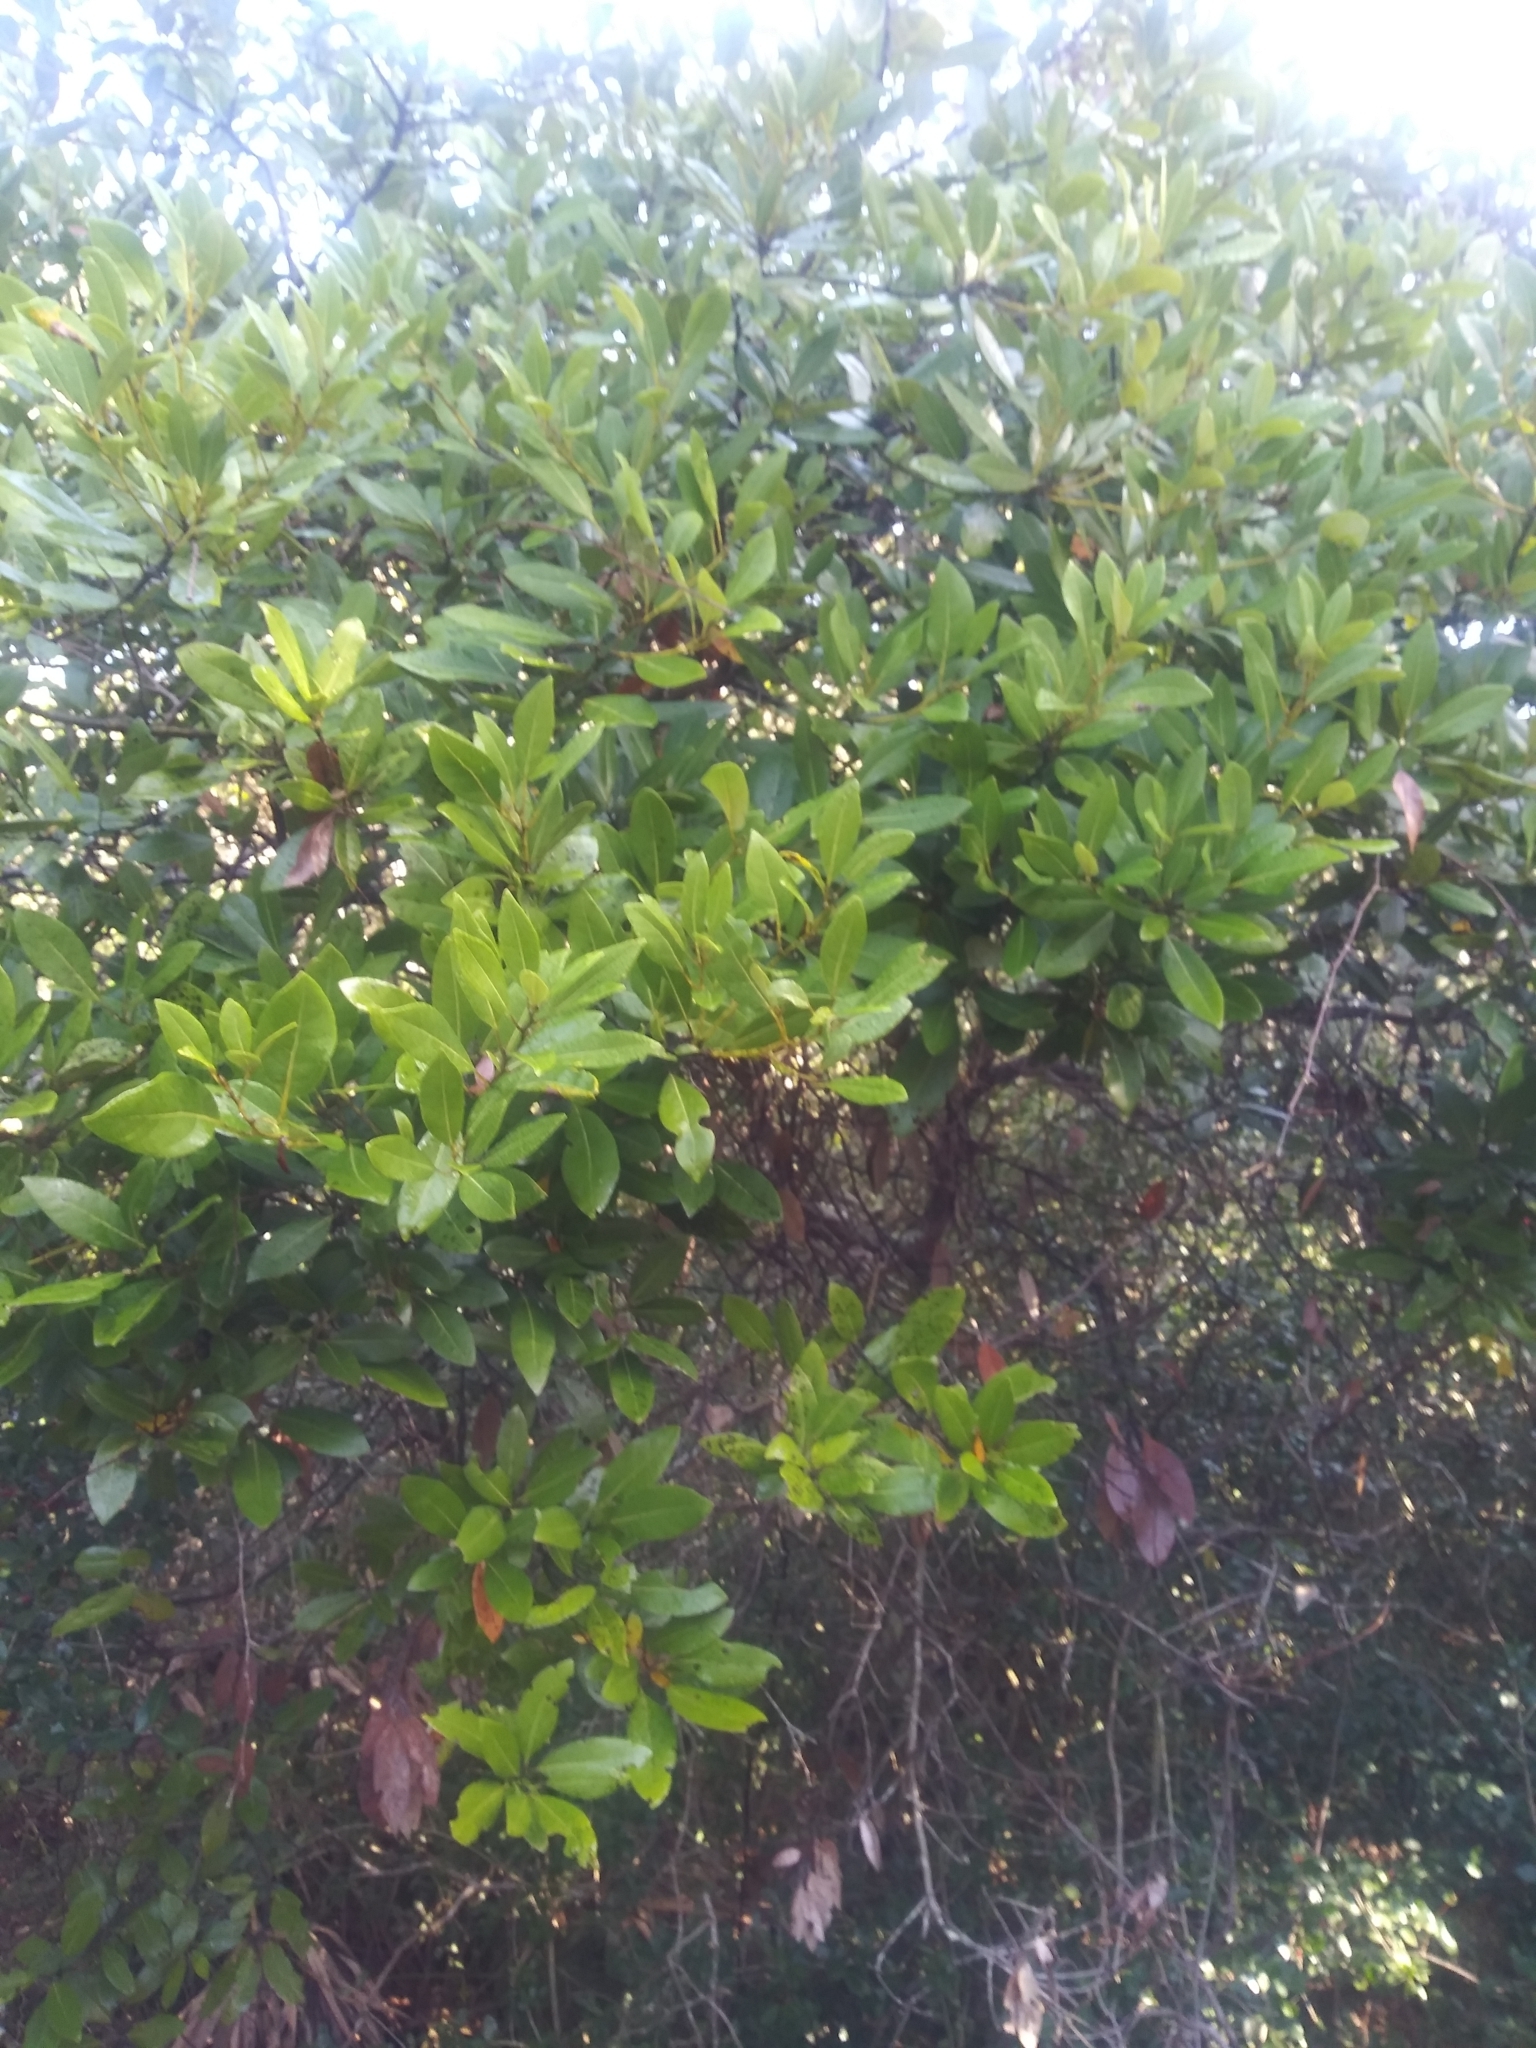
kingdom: Plantae
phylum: Tracheophyta
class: Magnoliopsida
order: Laurales
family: Lauraceae
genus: Persea
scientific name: Persea borbonia
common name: Redbay
